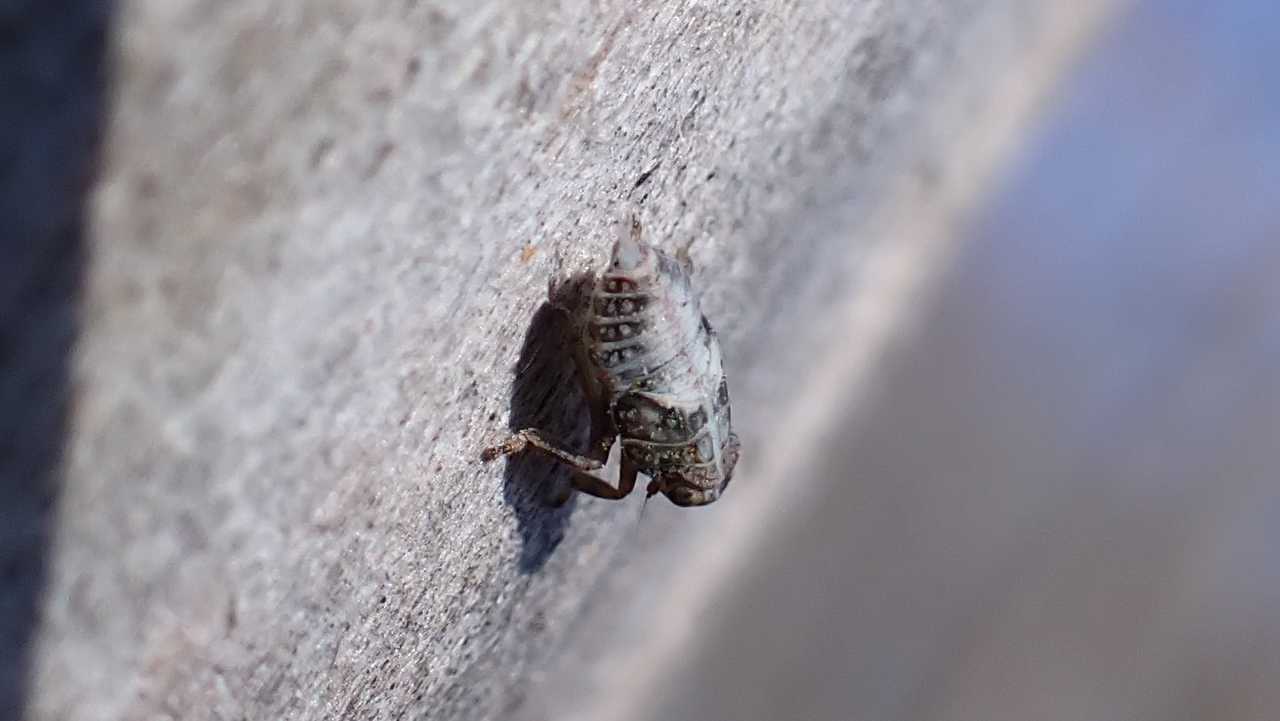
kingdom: Animalia
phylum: Arthropoda
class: Insecta
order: Hemiptera
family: Issidae
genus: Issus
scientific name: Issus
